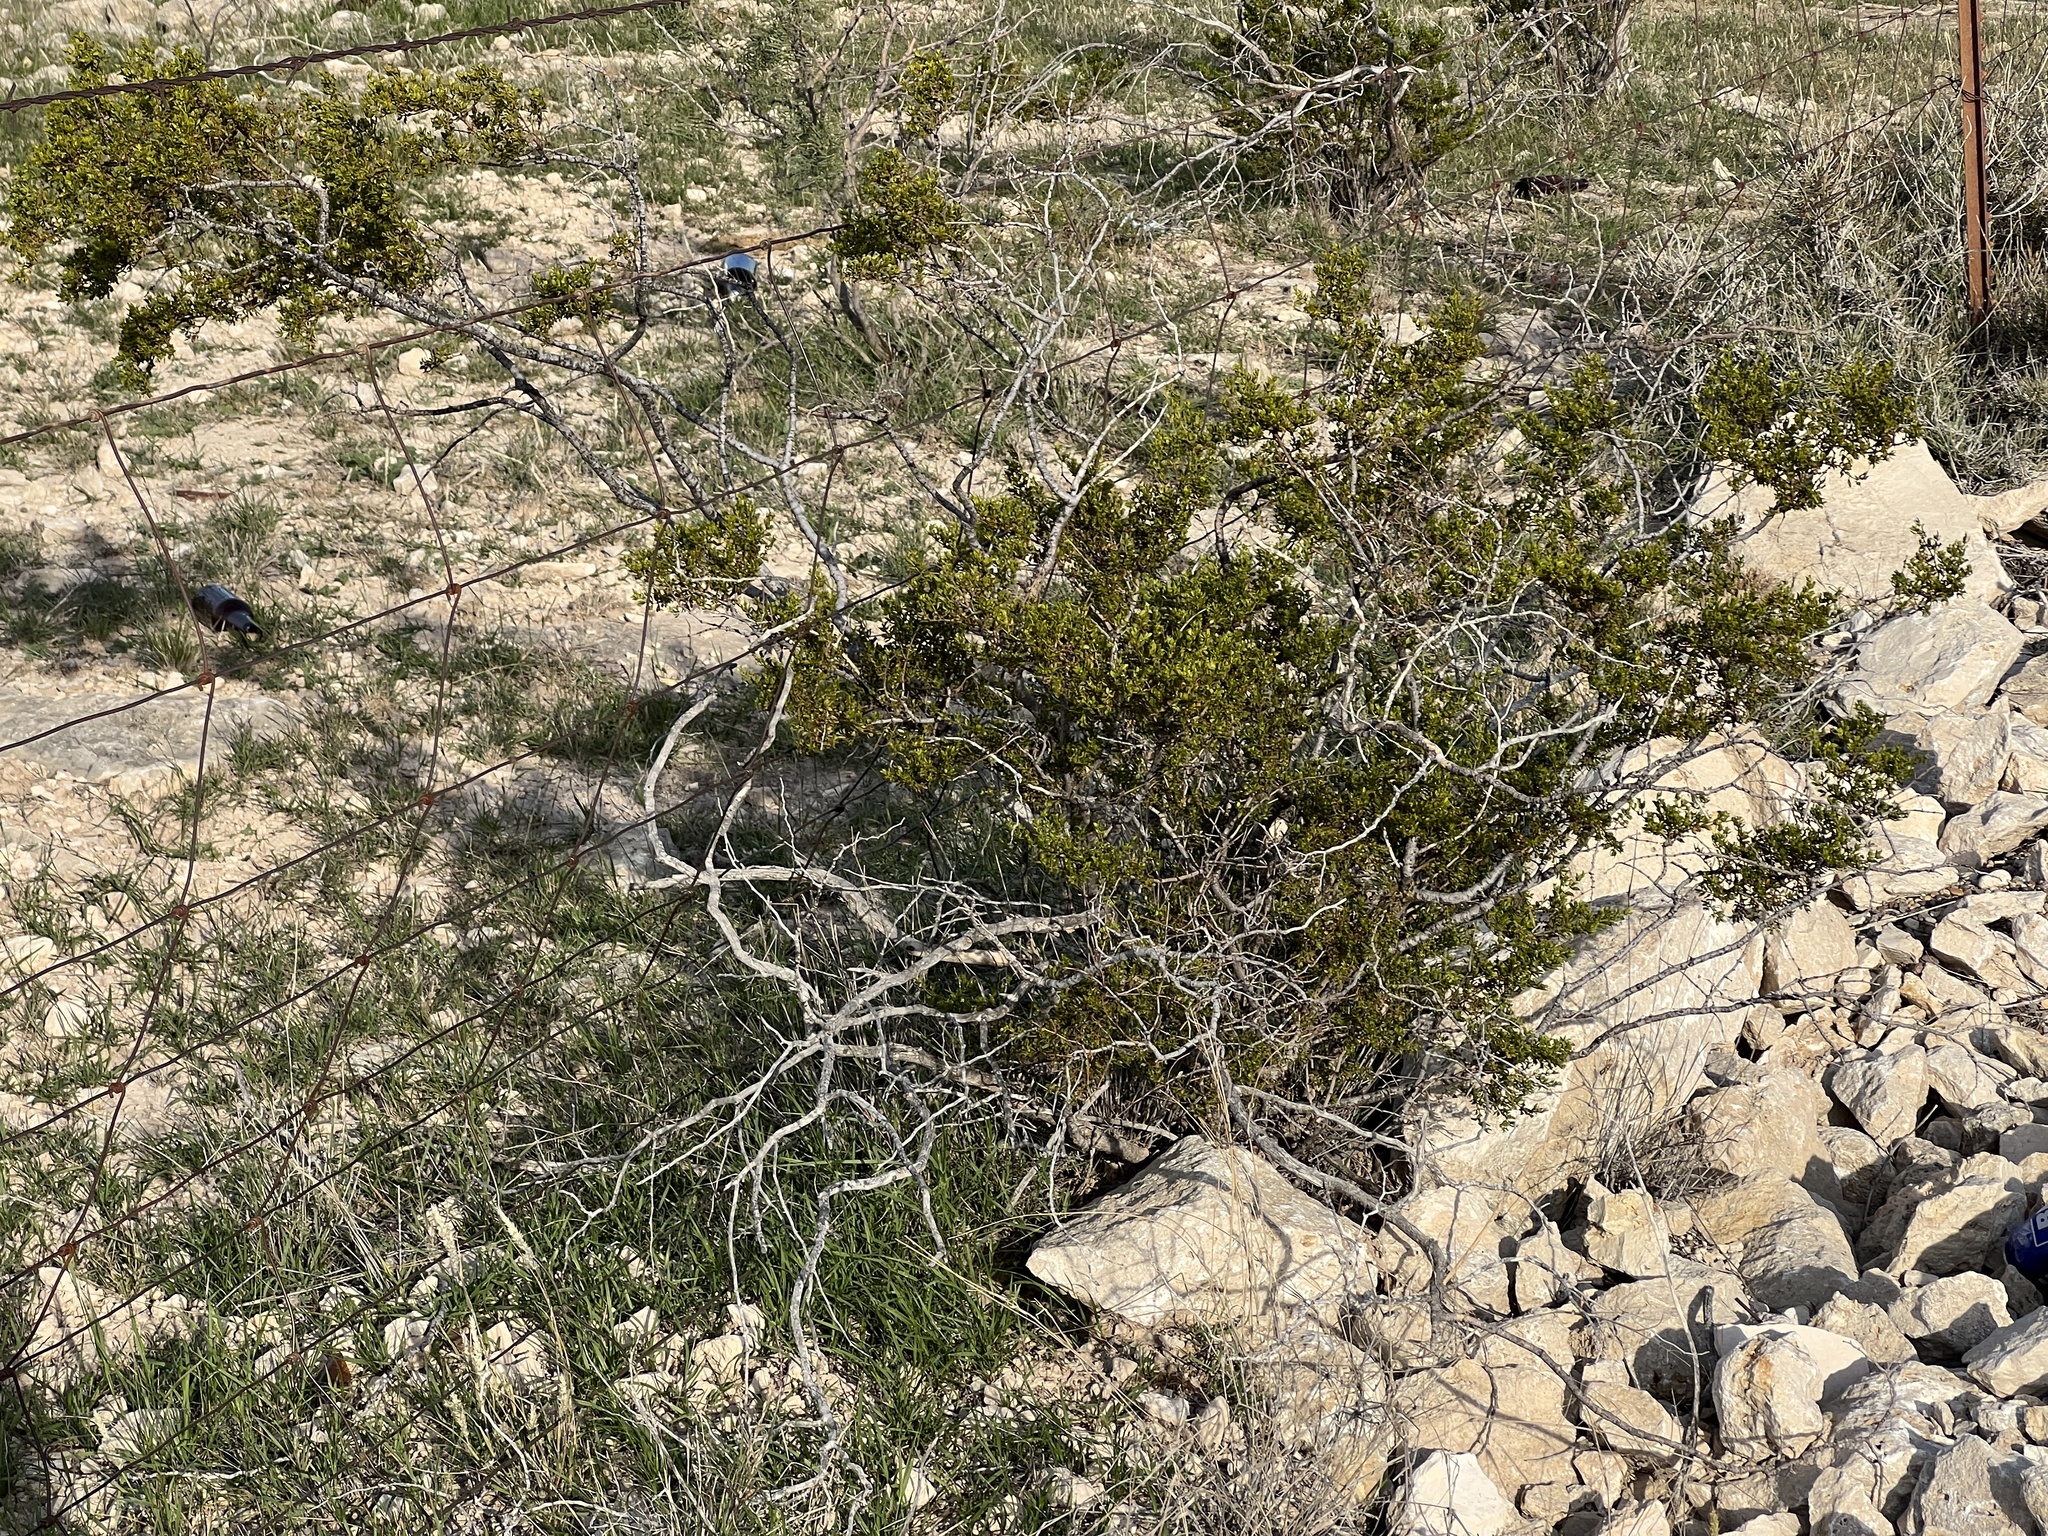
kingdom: Plantae
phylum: Tracheophyta
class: Magnoliopsida
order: Zygophyllales
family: Zygophyllaceae
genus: Larrea
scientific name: Larrea tridentata
